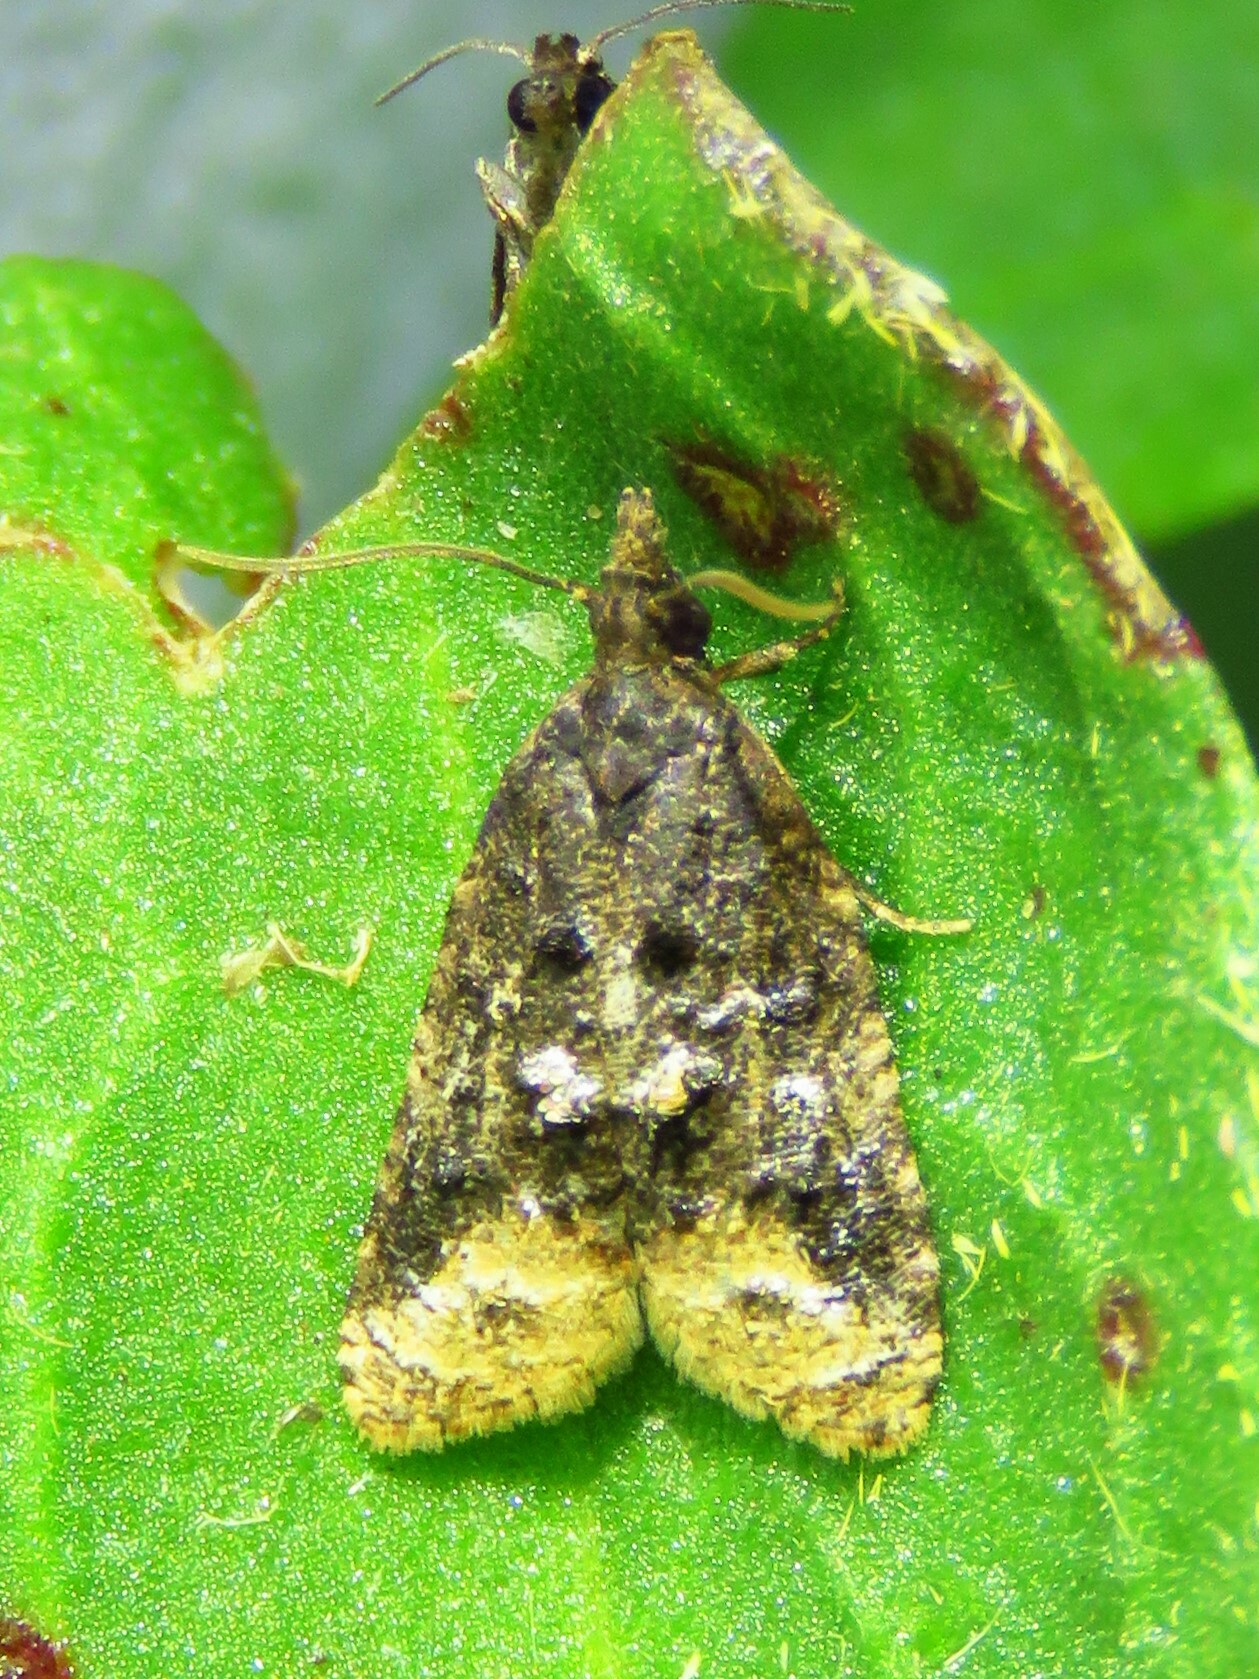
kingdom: Animalia
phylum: Arthropoda
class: Insecta
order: Lepidoptera
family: Tortricidae
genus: Platynota
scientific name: Platynota semiustana
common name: Singed platynota
